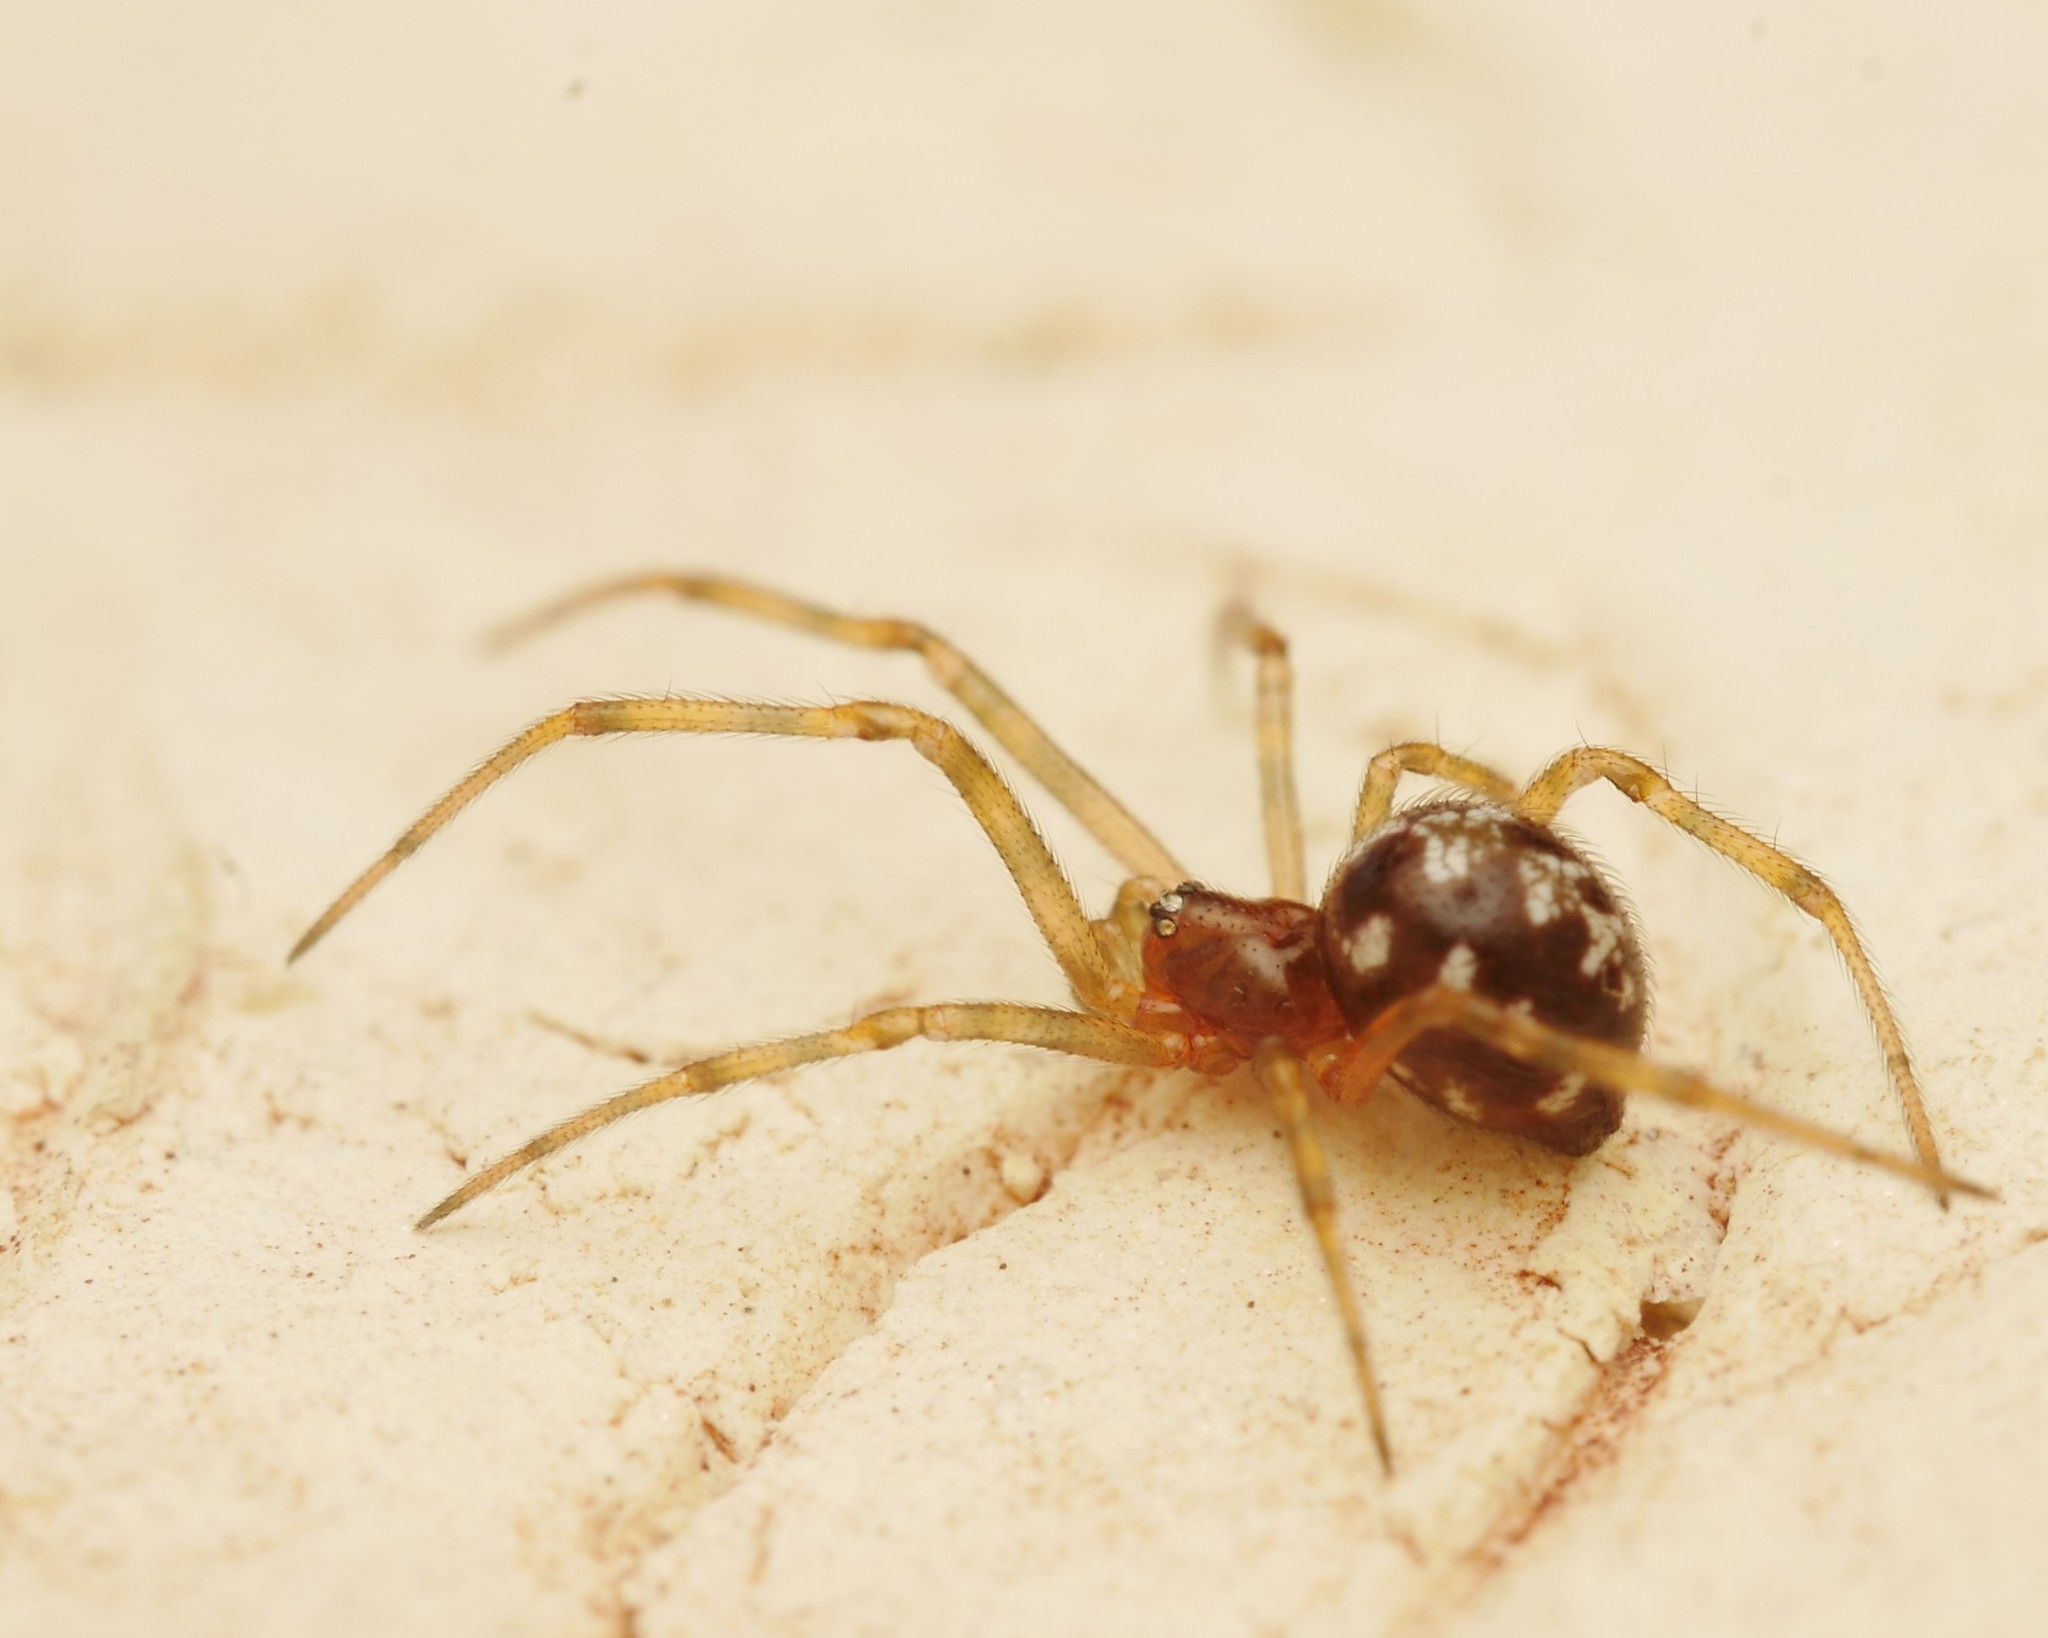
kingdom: Animalia
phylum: Arthropoda
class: Arachnida
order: Araneae
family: Theridiidae
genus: Steatoda
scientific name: Steatoda triangulosa
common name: Triangulate bud spider
